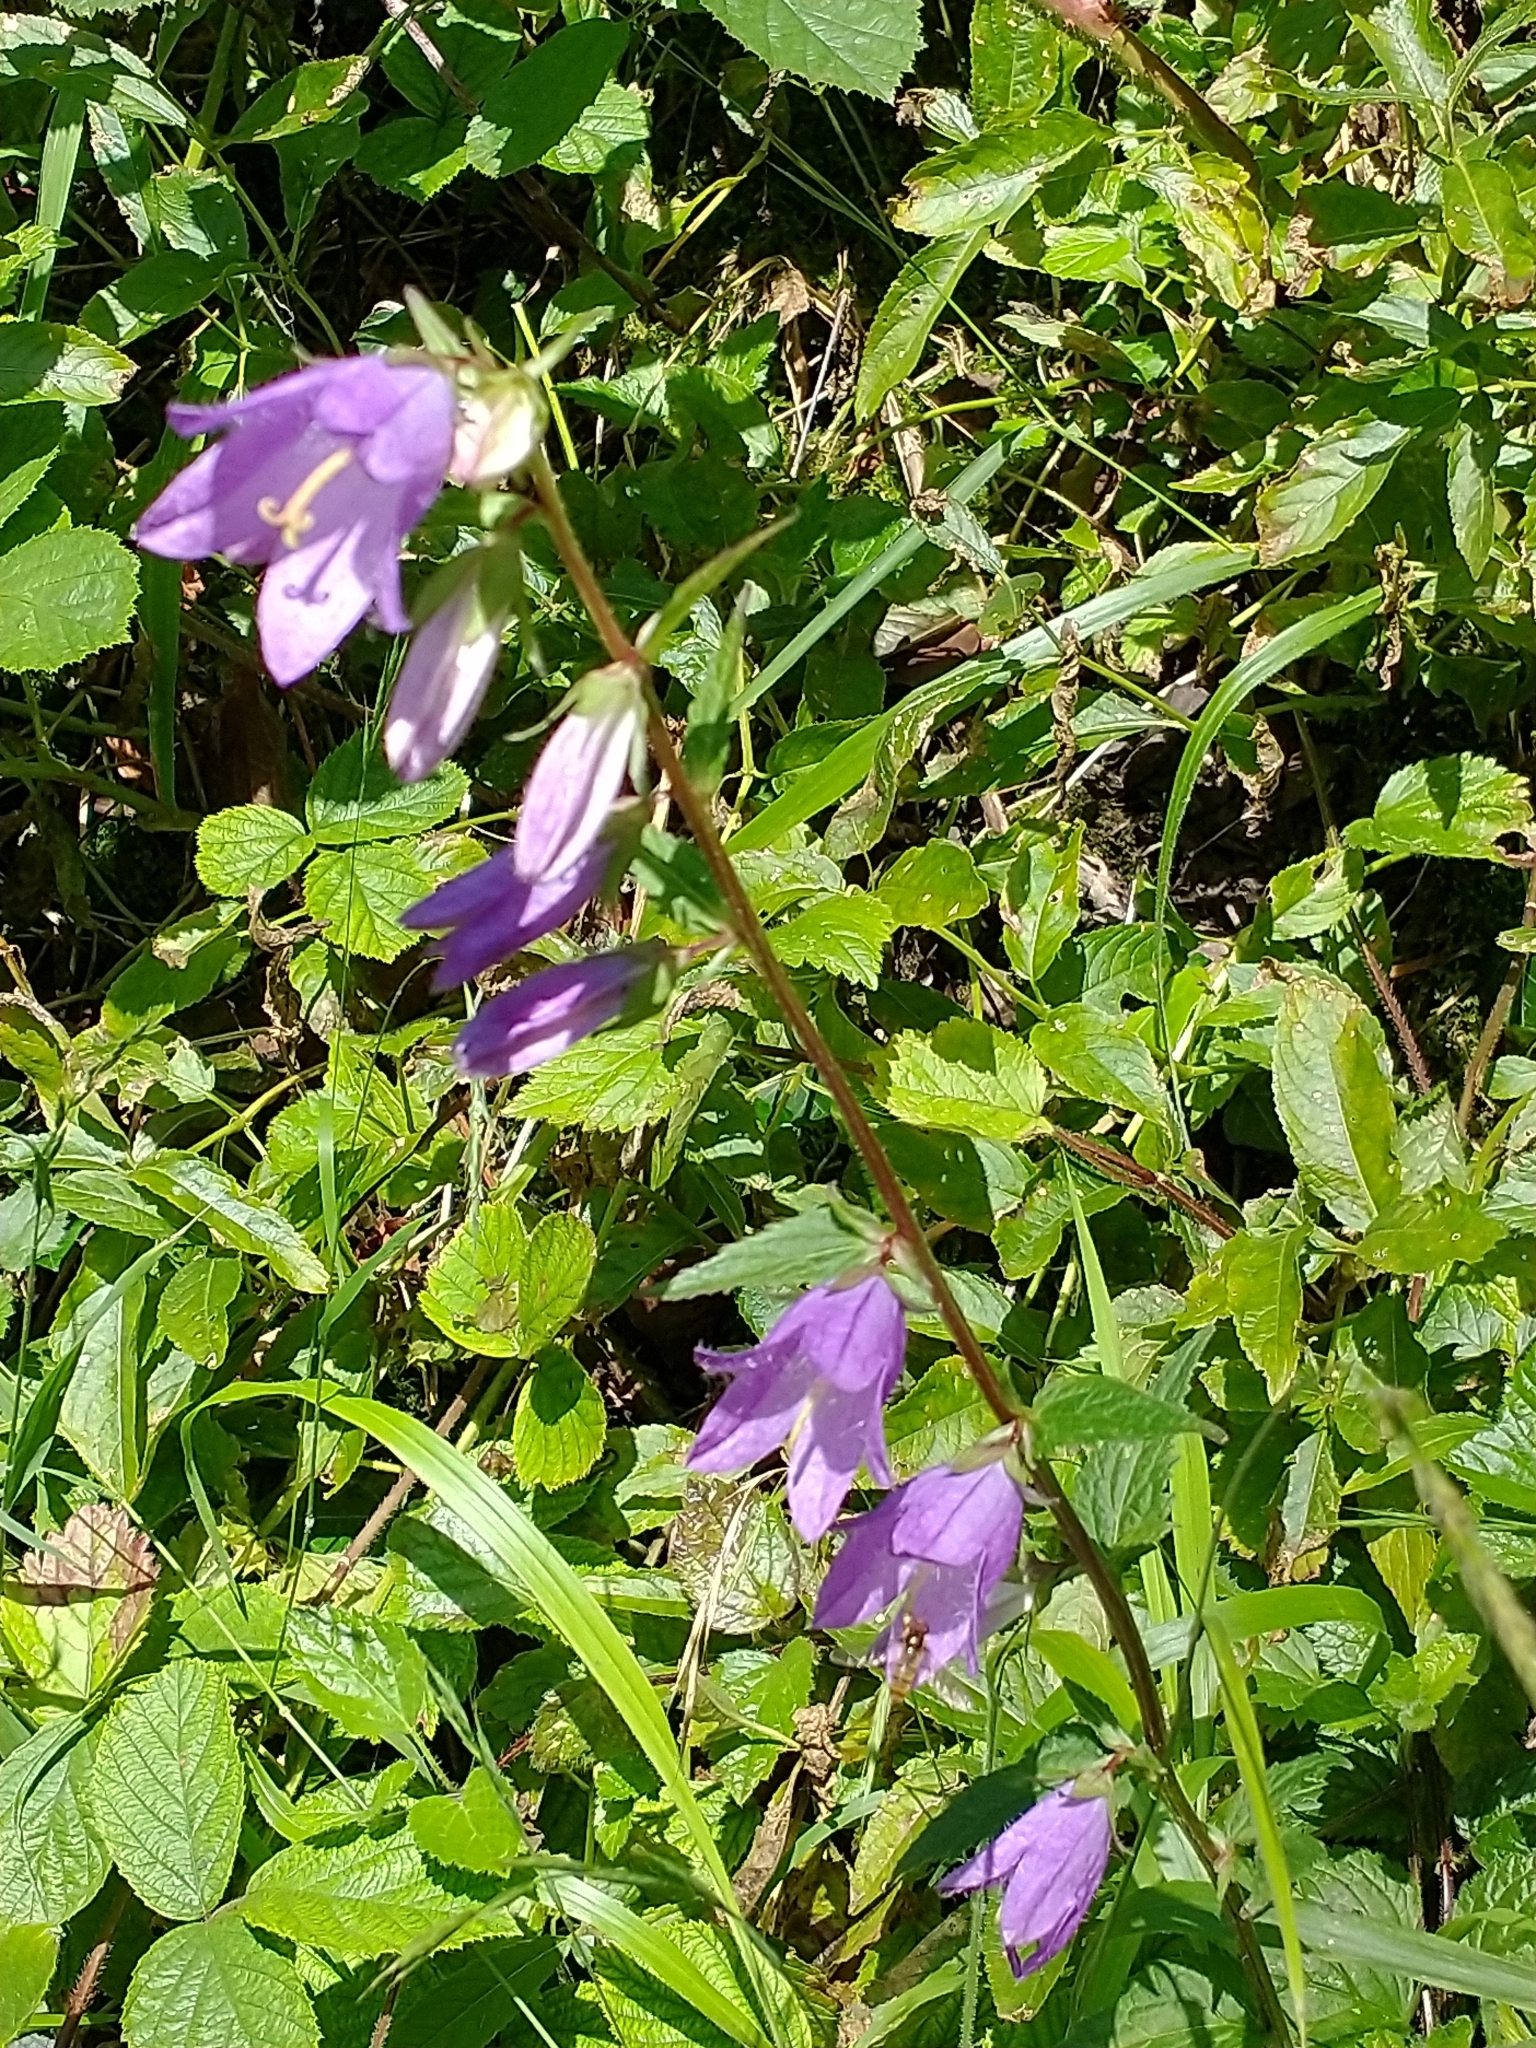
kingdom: Plantae
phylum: Tracheophyta
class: Magnoliopsida
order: Asterales
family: Campanulaceae
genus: Campanula
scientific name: Campanula trachelium
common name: Nettle-leaved bellflower
